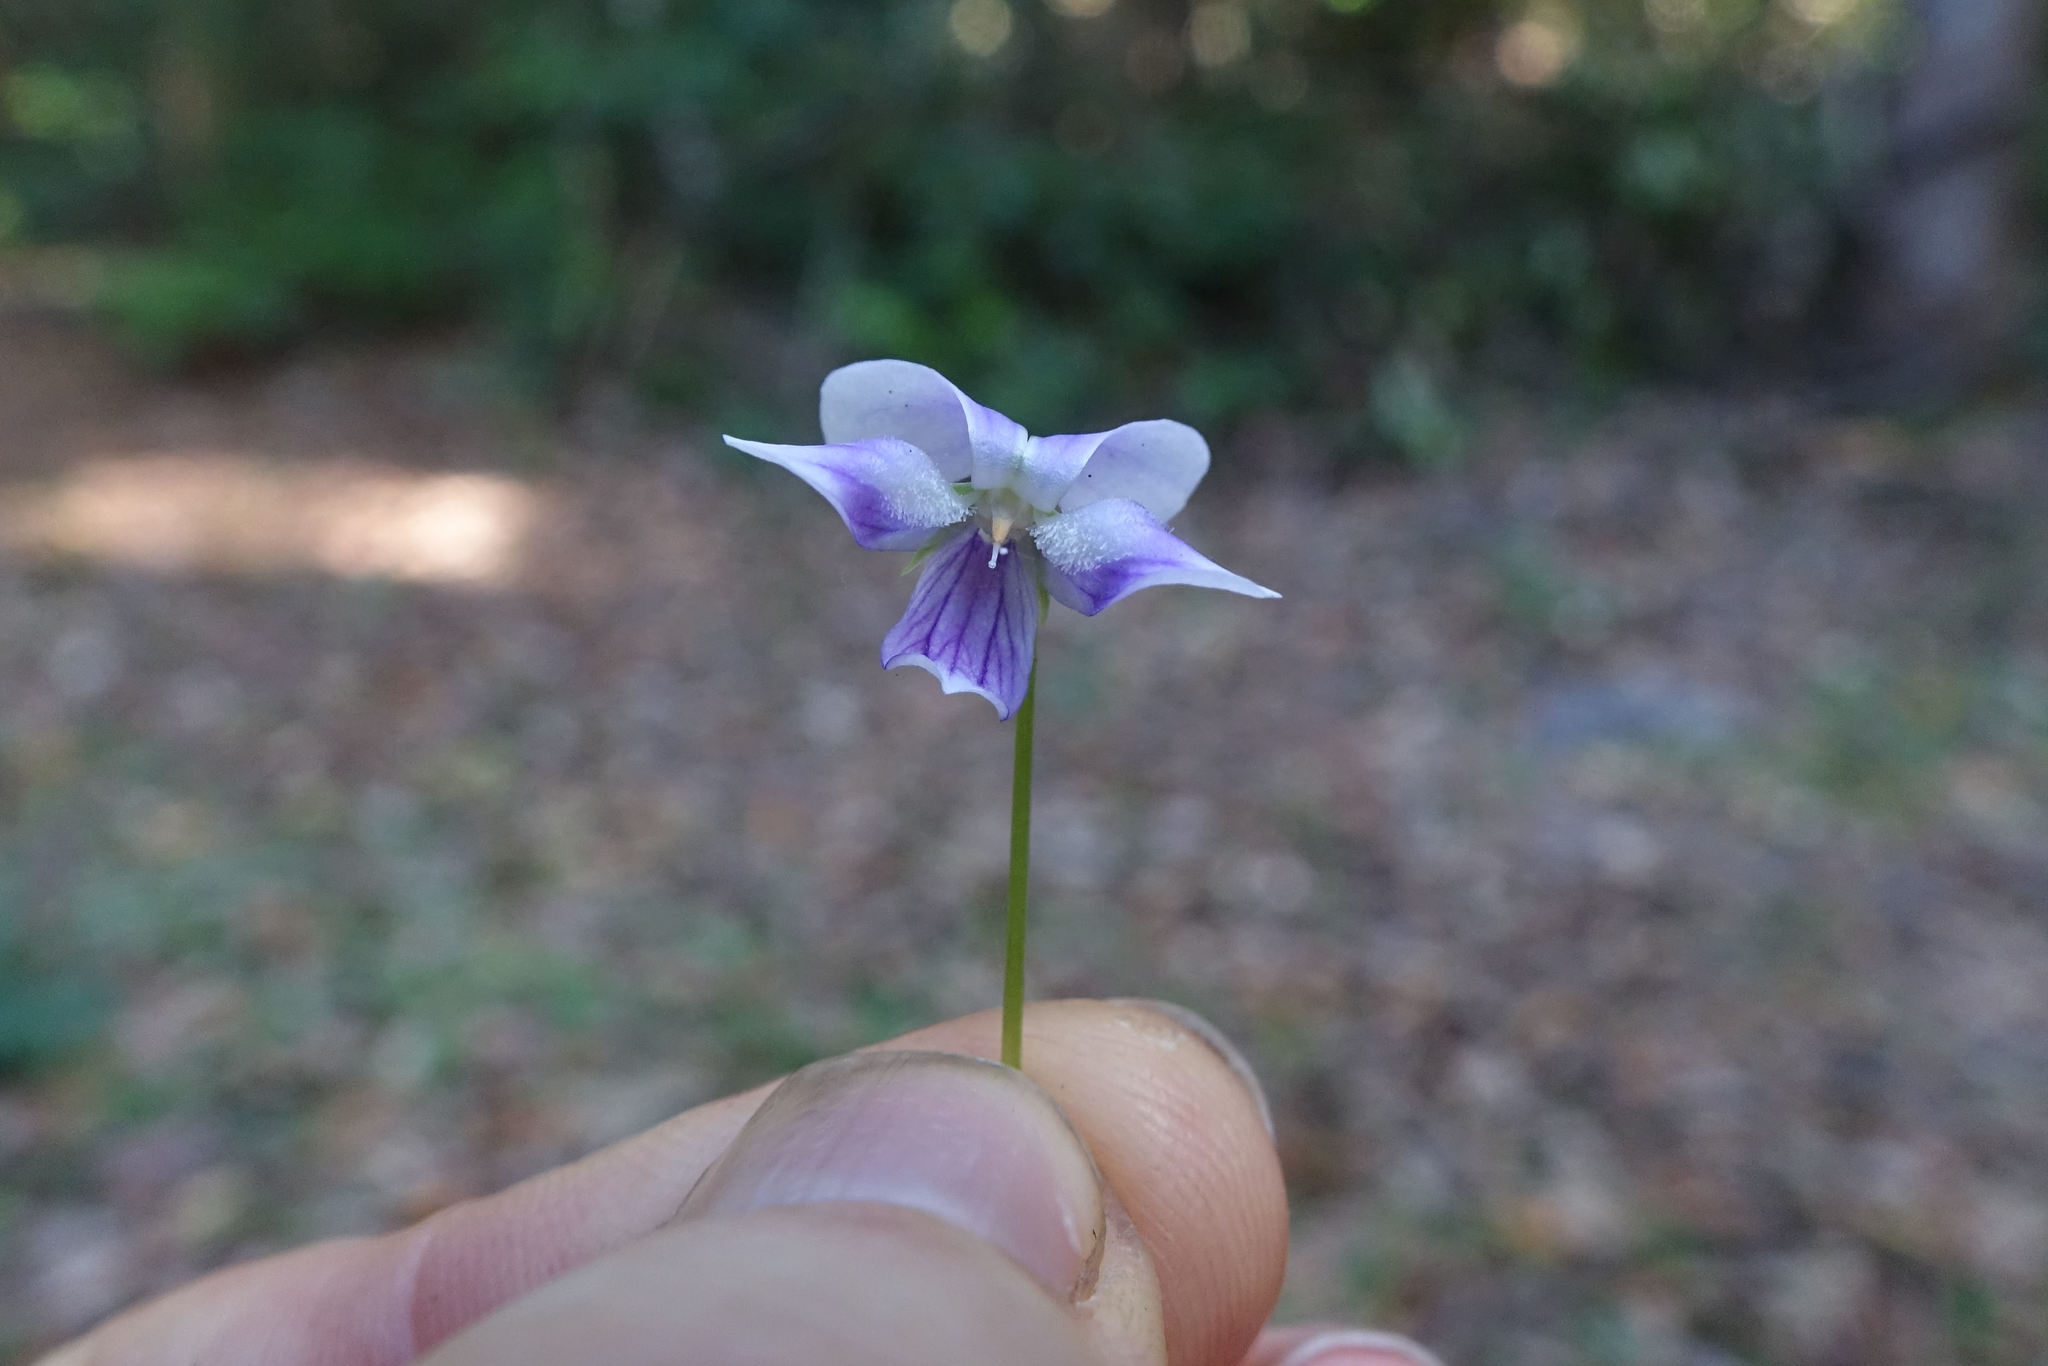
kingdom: Plantae
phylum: Tracheophyta
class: Magnoliopsida
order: Malpighiales
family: Violaceae
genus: Viola
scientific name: Viola hederacea
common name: Australian violet
